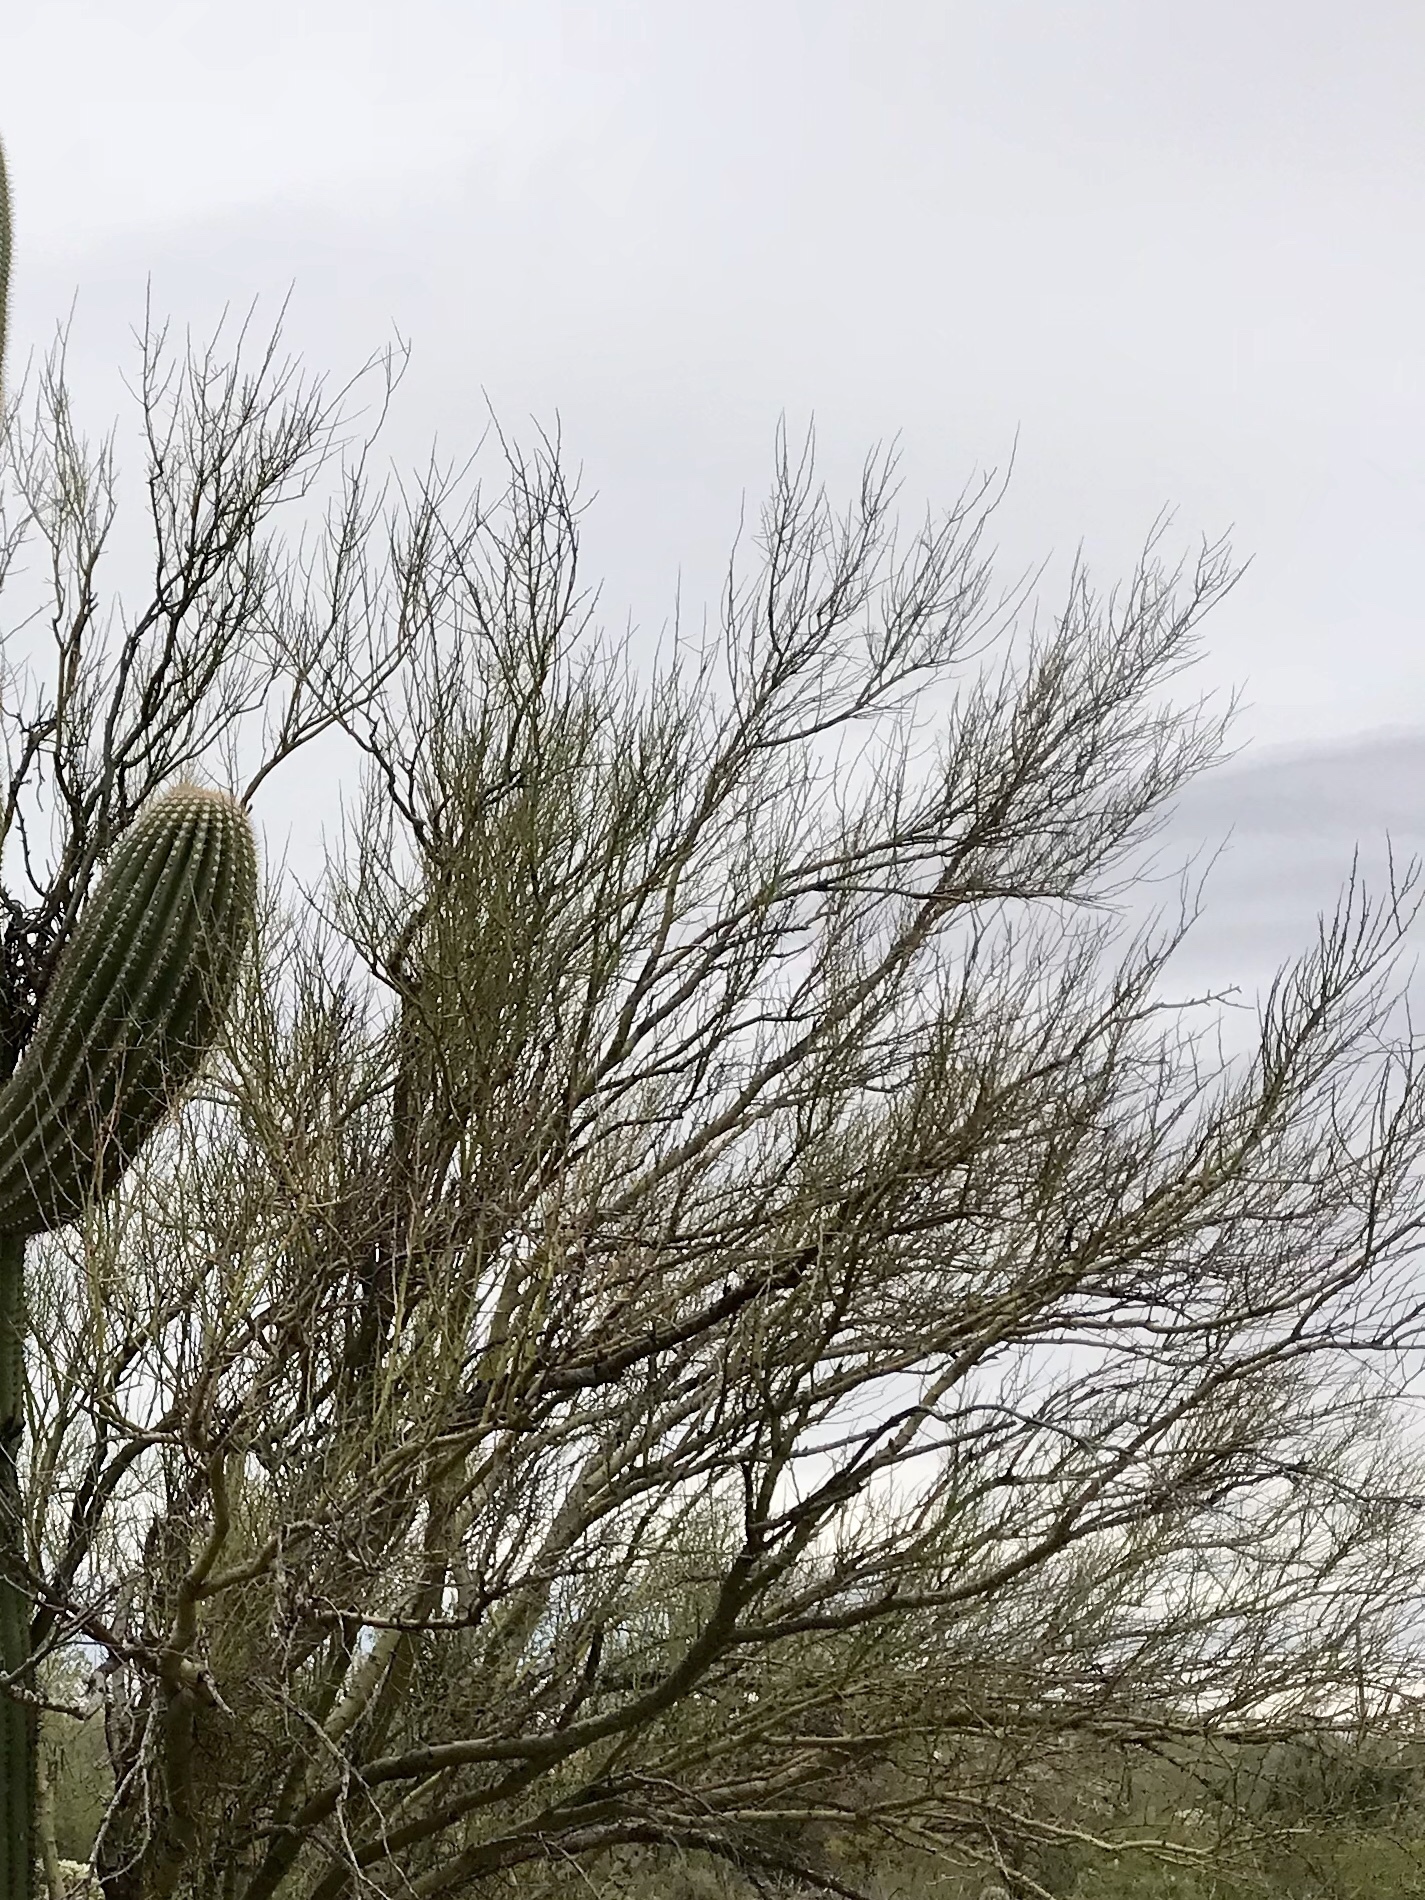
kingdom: Plantae
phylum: Tracheophyta
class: Magnoliopsida
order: Fabales
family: Fabaceae
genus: Parkinsonia
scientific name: Parkinsonia microphylla
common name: Yellow paloverde
